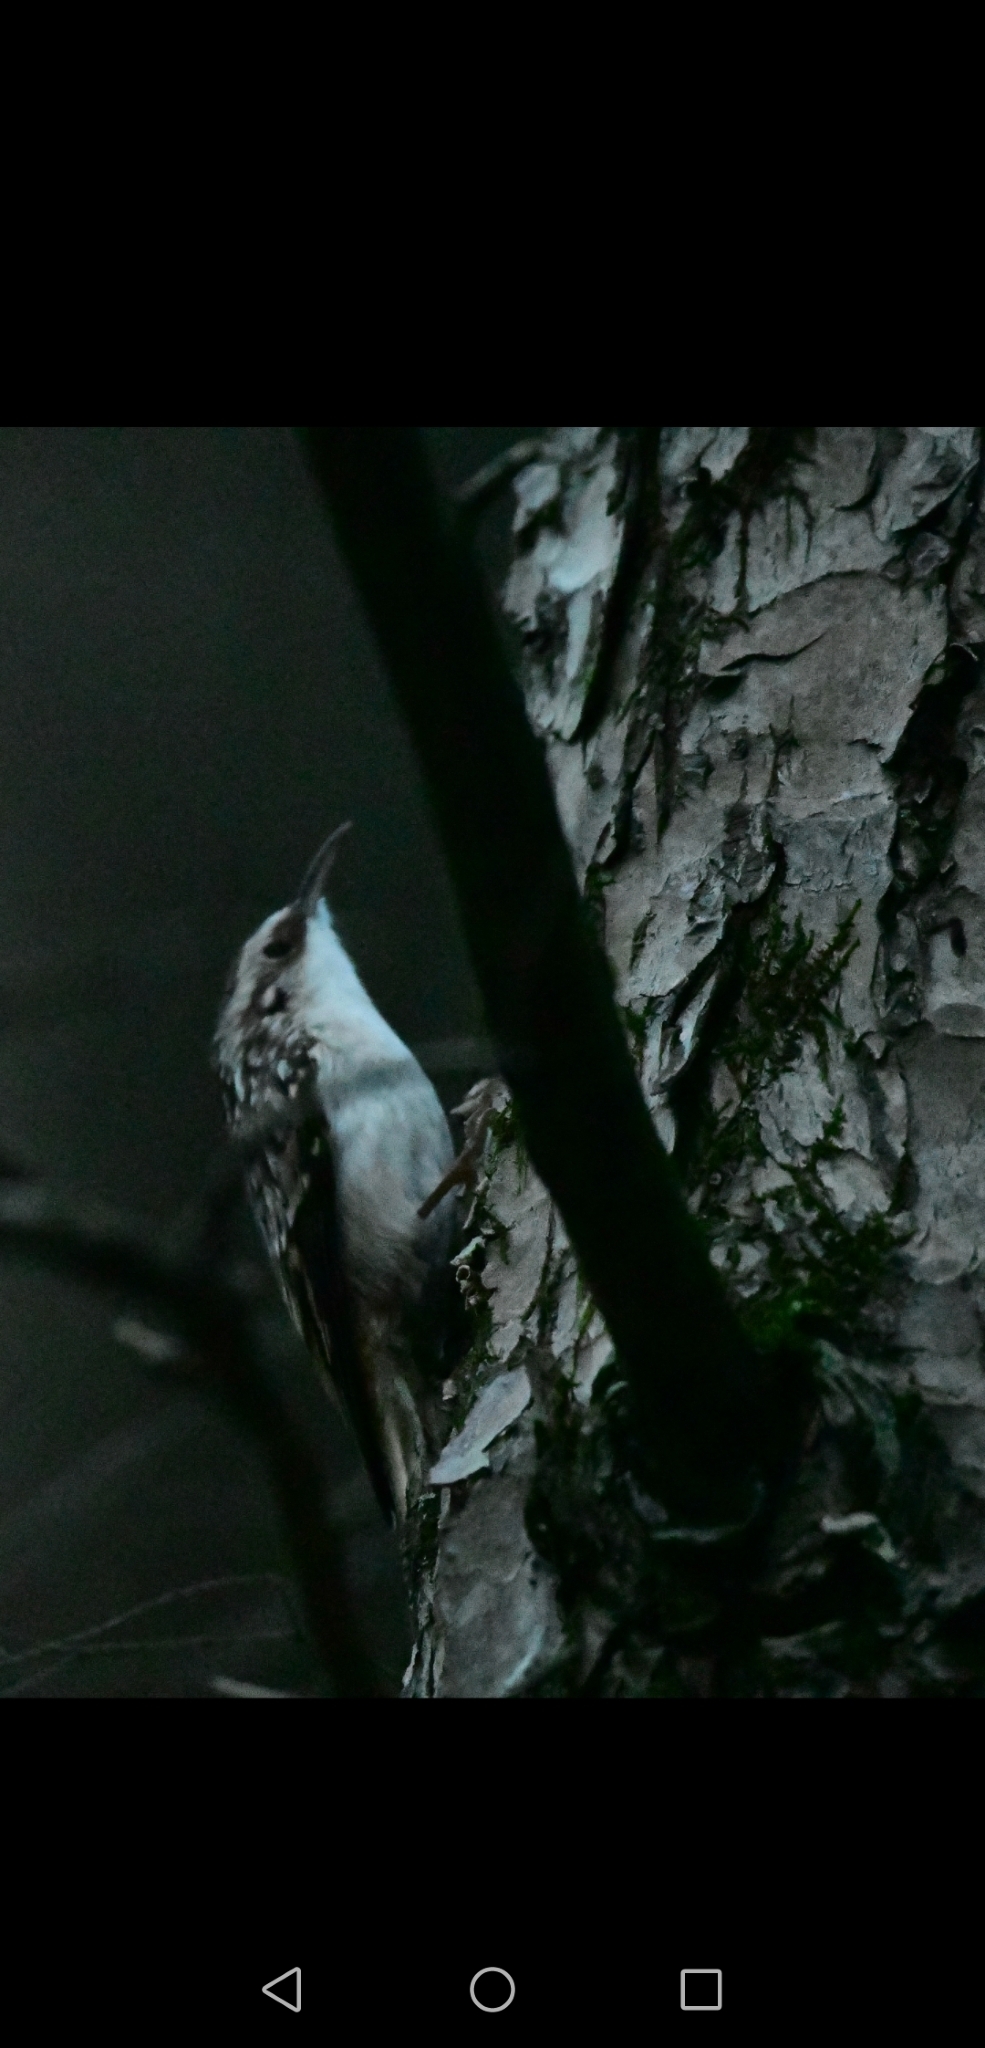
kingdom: Animalia
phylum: Chordata
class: Aves
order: Passeriformes
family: Certhiidae
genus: Certhia
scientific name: Certhia americana
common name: Brown creeper
